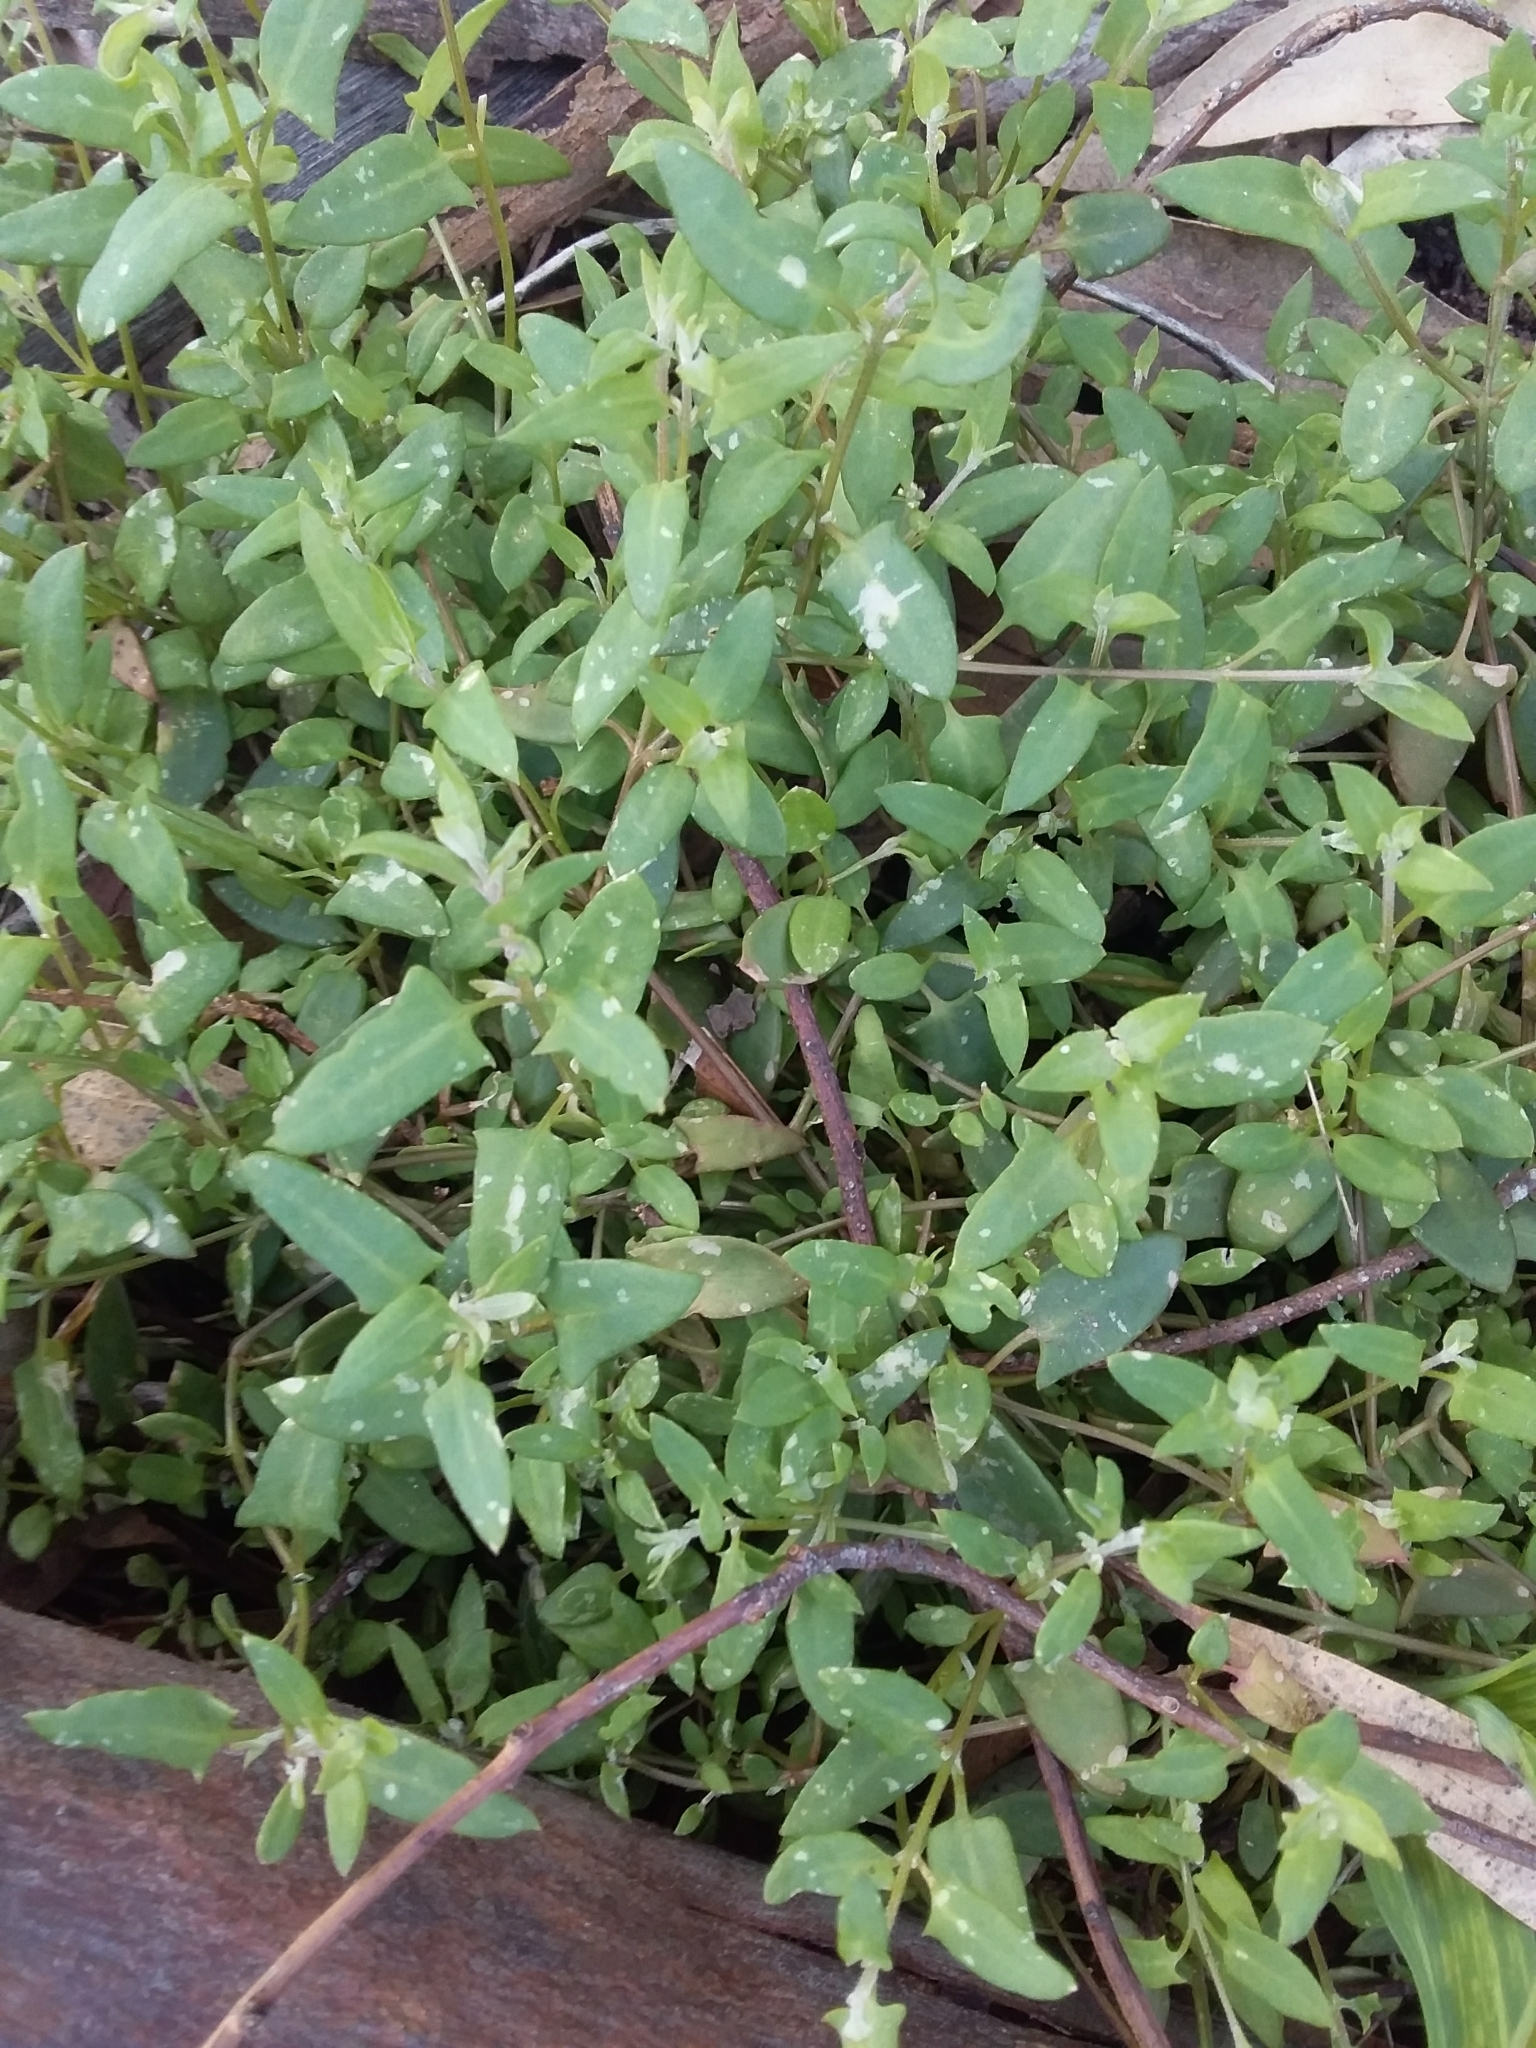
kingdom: Plantae
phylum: Tracheophyta
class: Magnoliopsida
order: Caryophyllales
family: Amaranthaceae
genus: Chenopodium
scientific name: Chenopodium nutans
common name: Climbing-saltbush
